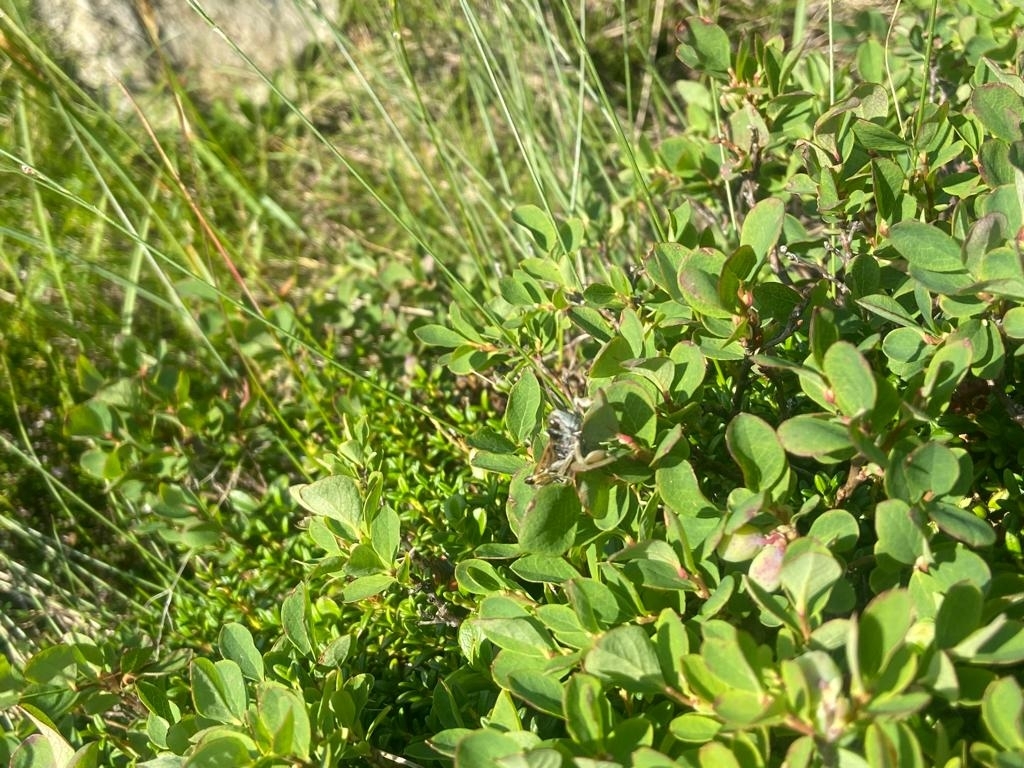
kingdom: Animalia
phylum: Arthropoda
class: Insecta
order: Orthoptera
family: Acrididae
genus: Gomphocerus
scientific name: Gomphocerus sibiricus
